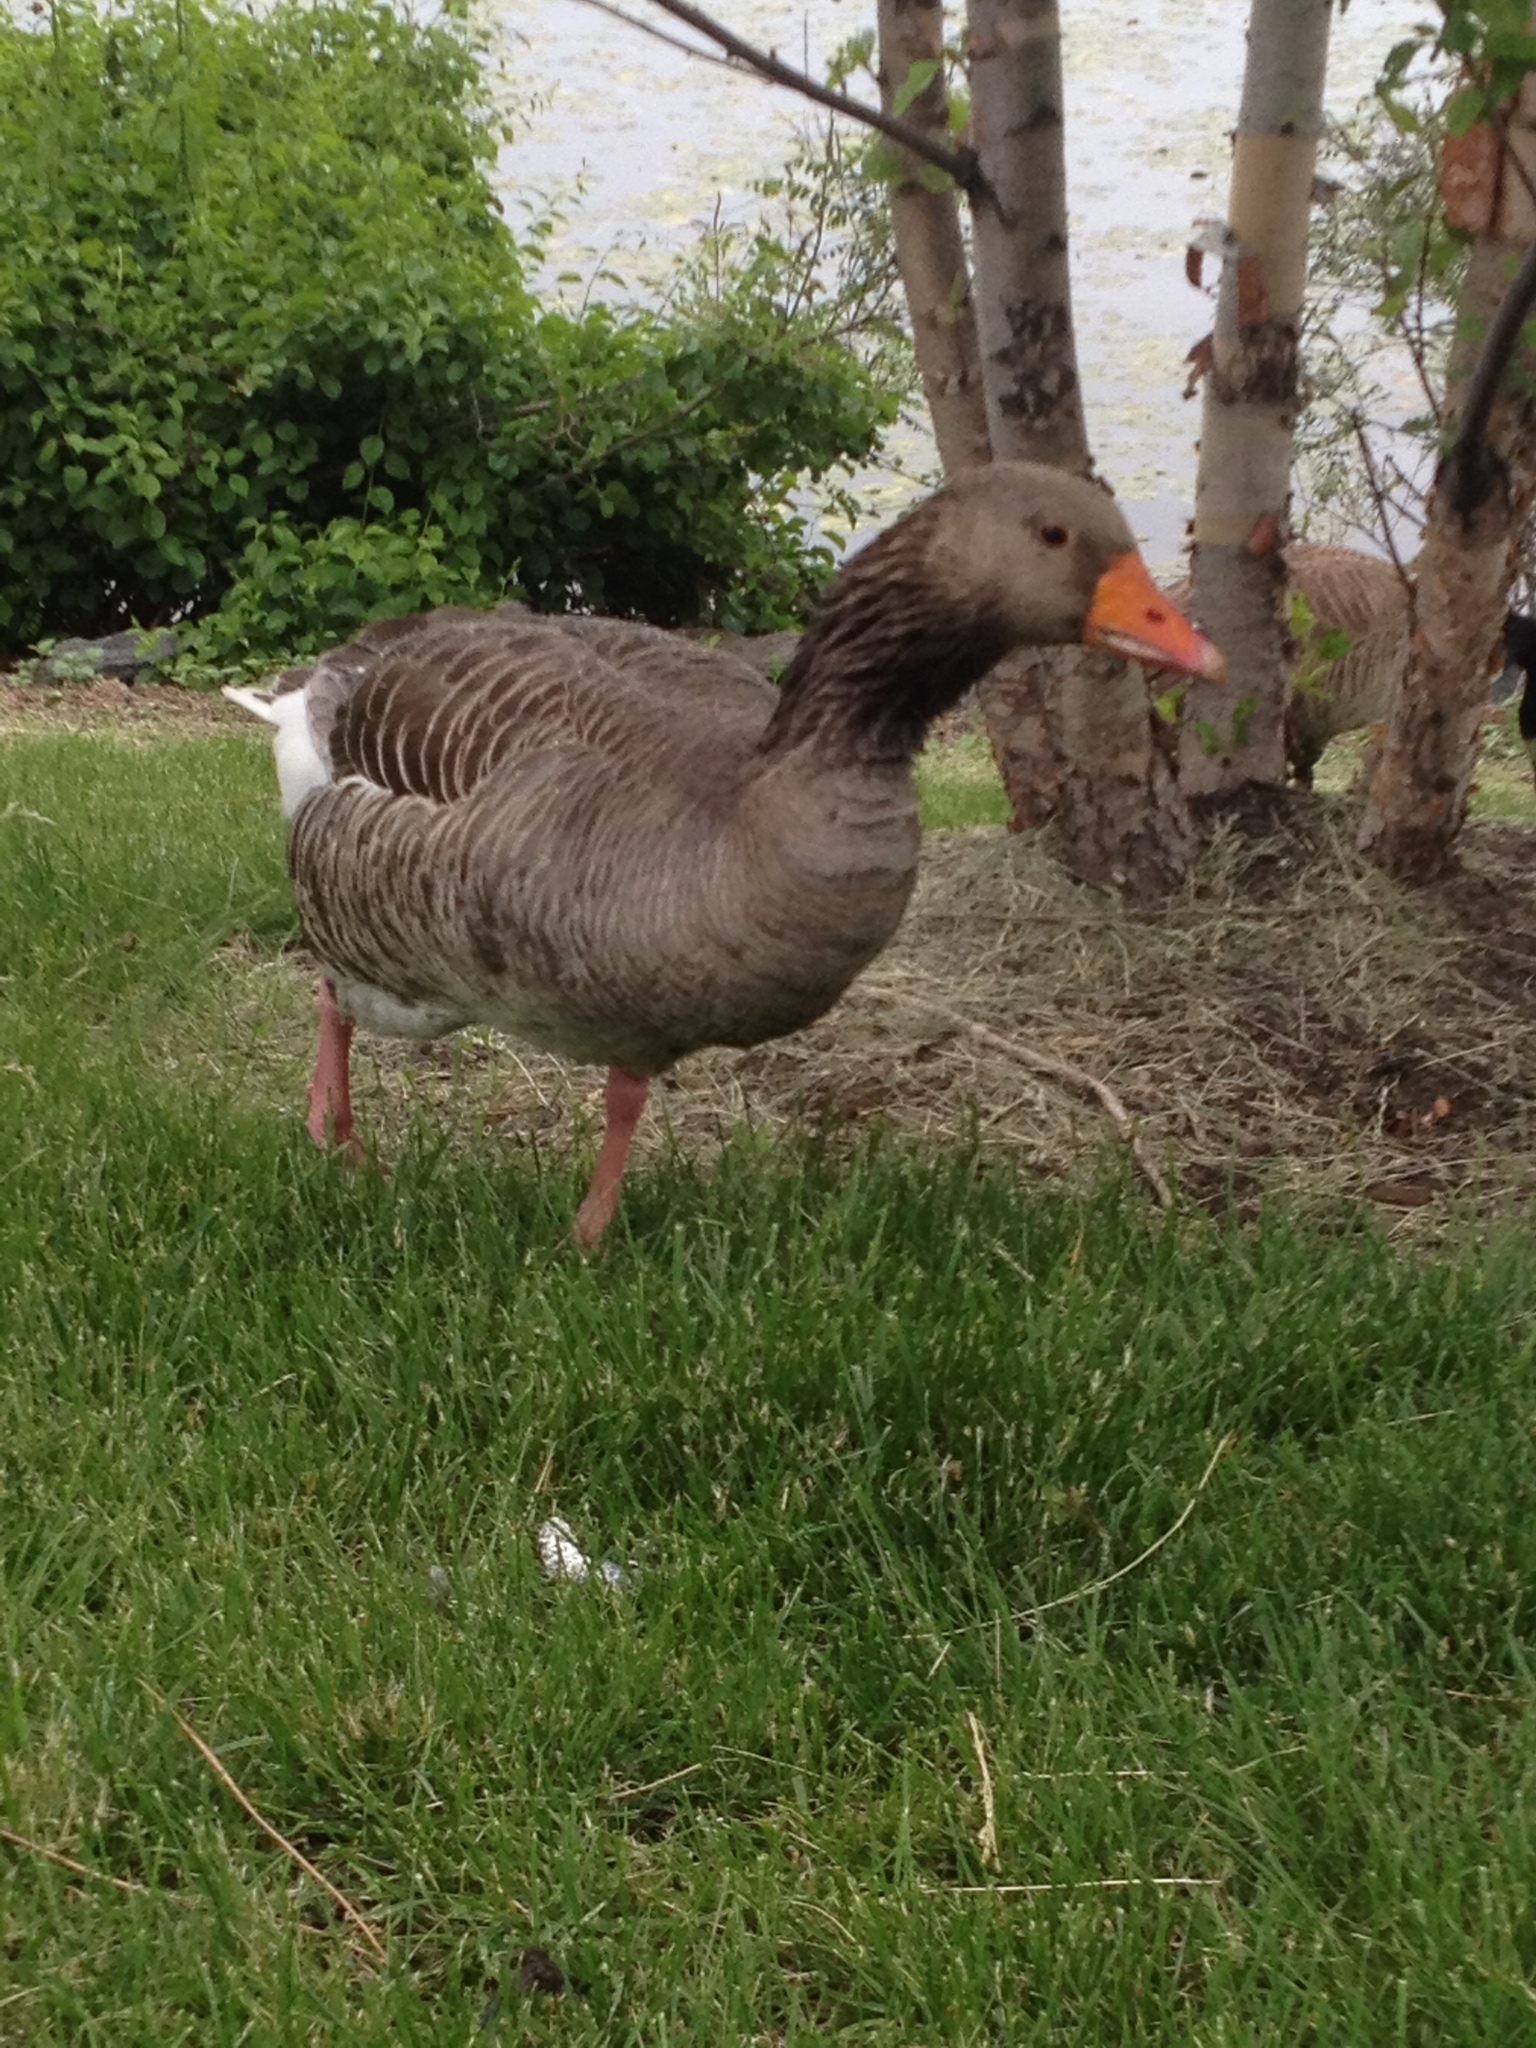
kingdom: Animalia
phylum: Chordata
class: Aves
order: Anseriformes
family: Anatidae
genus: Anser
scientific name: Anser anser
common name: Greylag goose
